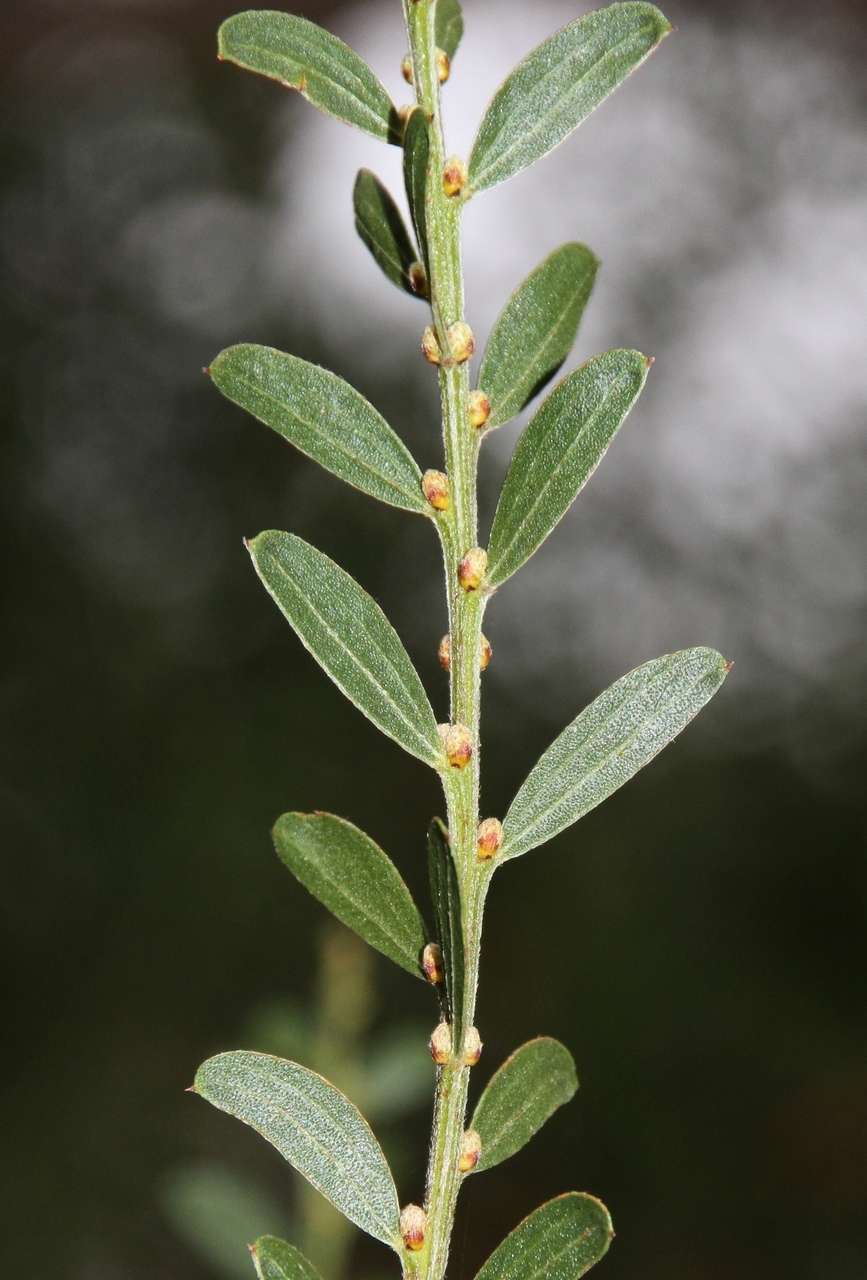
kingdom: Plantae
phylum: Tracheophyta
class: Magnoliopsida
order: Fabales
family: Fabaceae
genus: Acacia
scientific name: Acacia rostriformis
